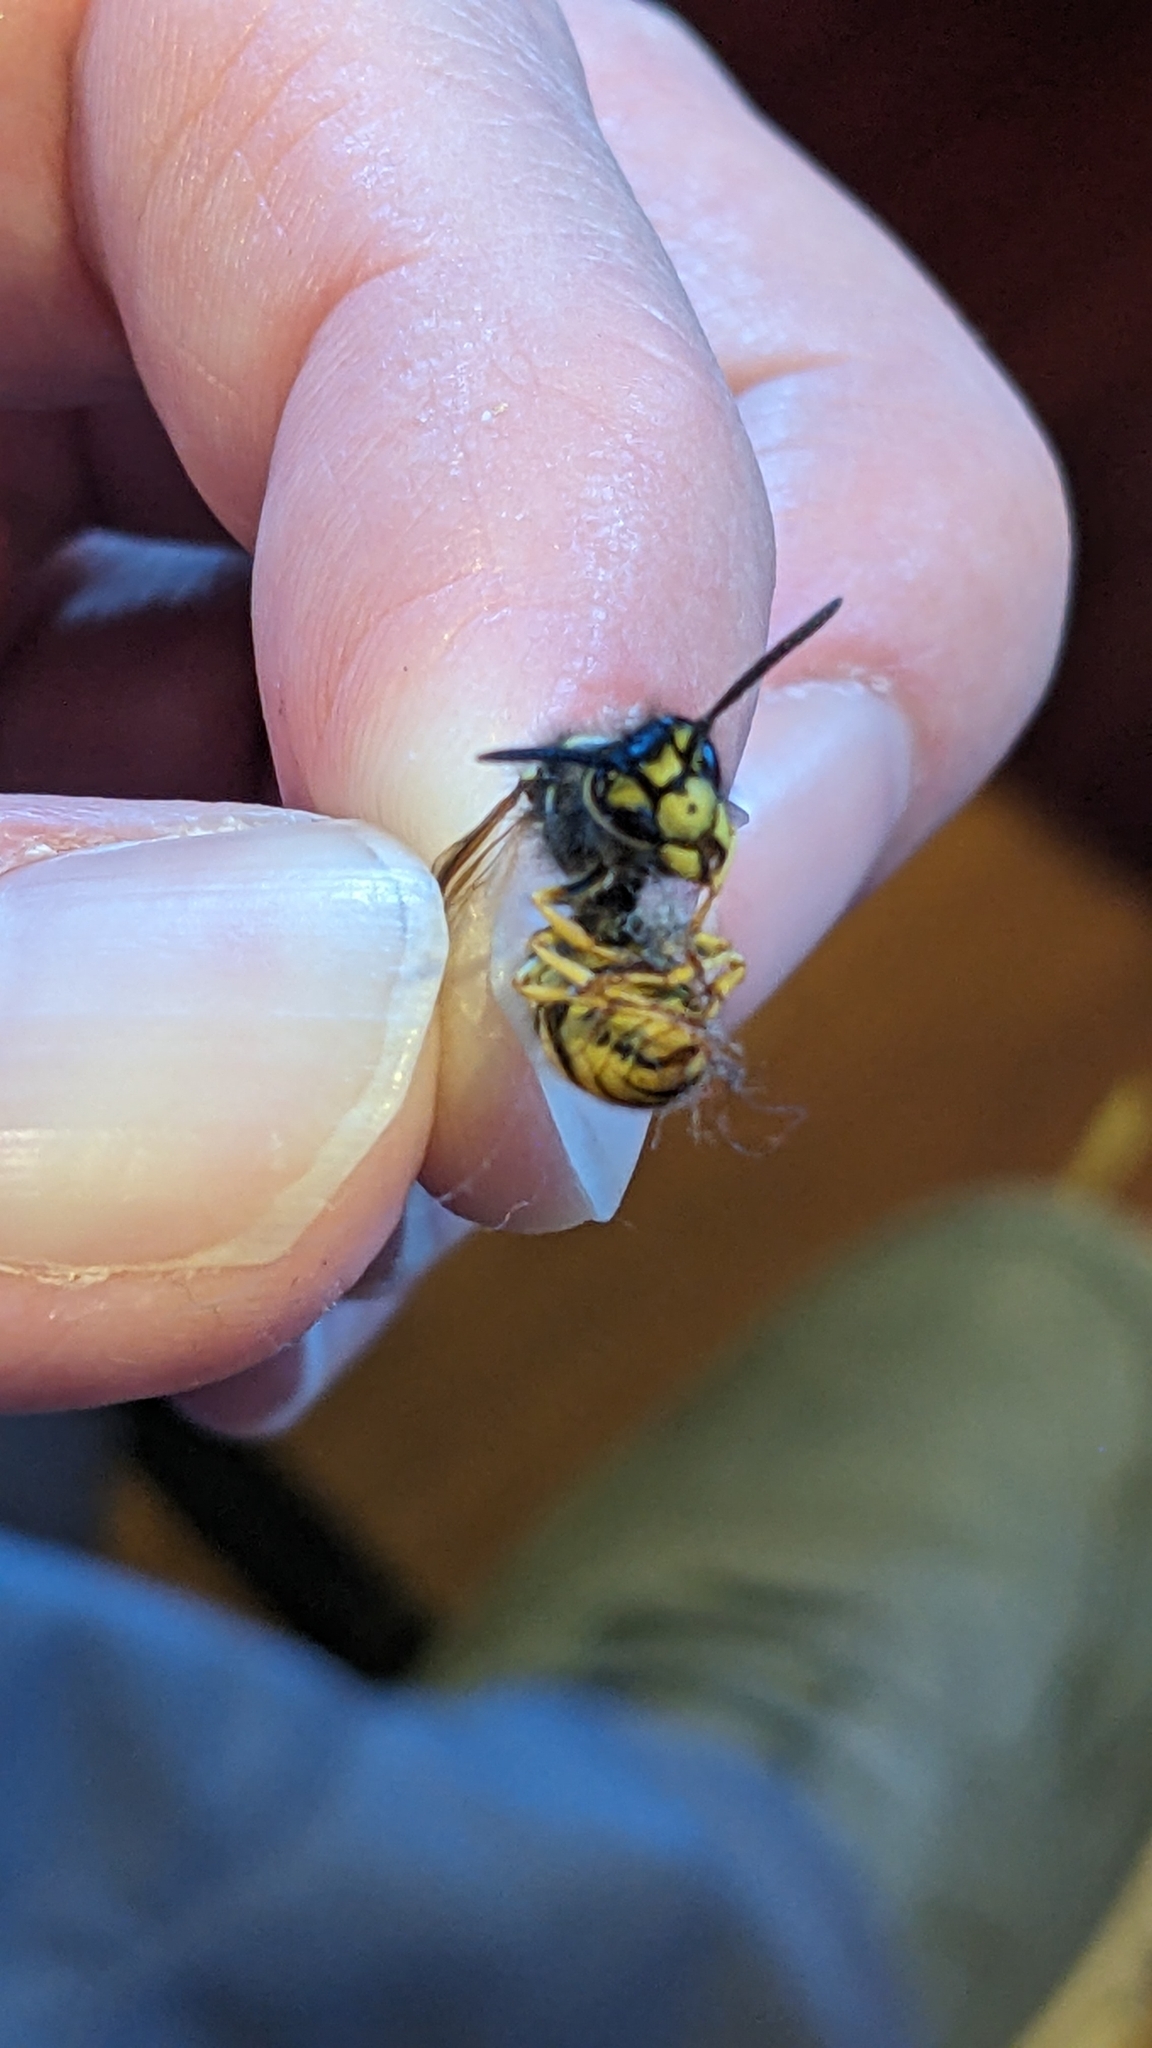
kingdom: Animalia
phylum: Arthropoda
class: Insecta
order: Hymenoptera
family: Vespidae
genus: Vespula
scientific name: Vespula germanica
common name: German wasp
